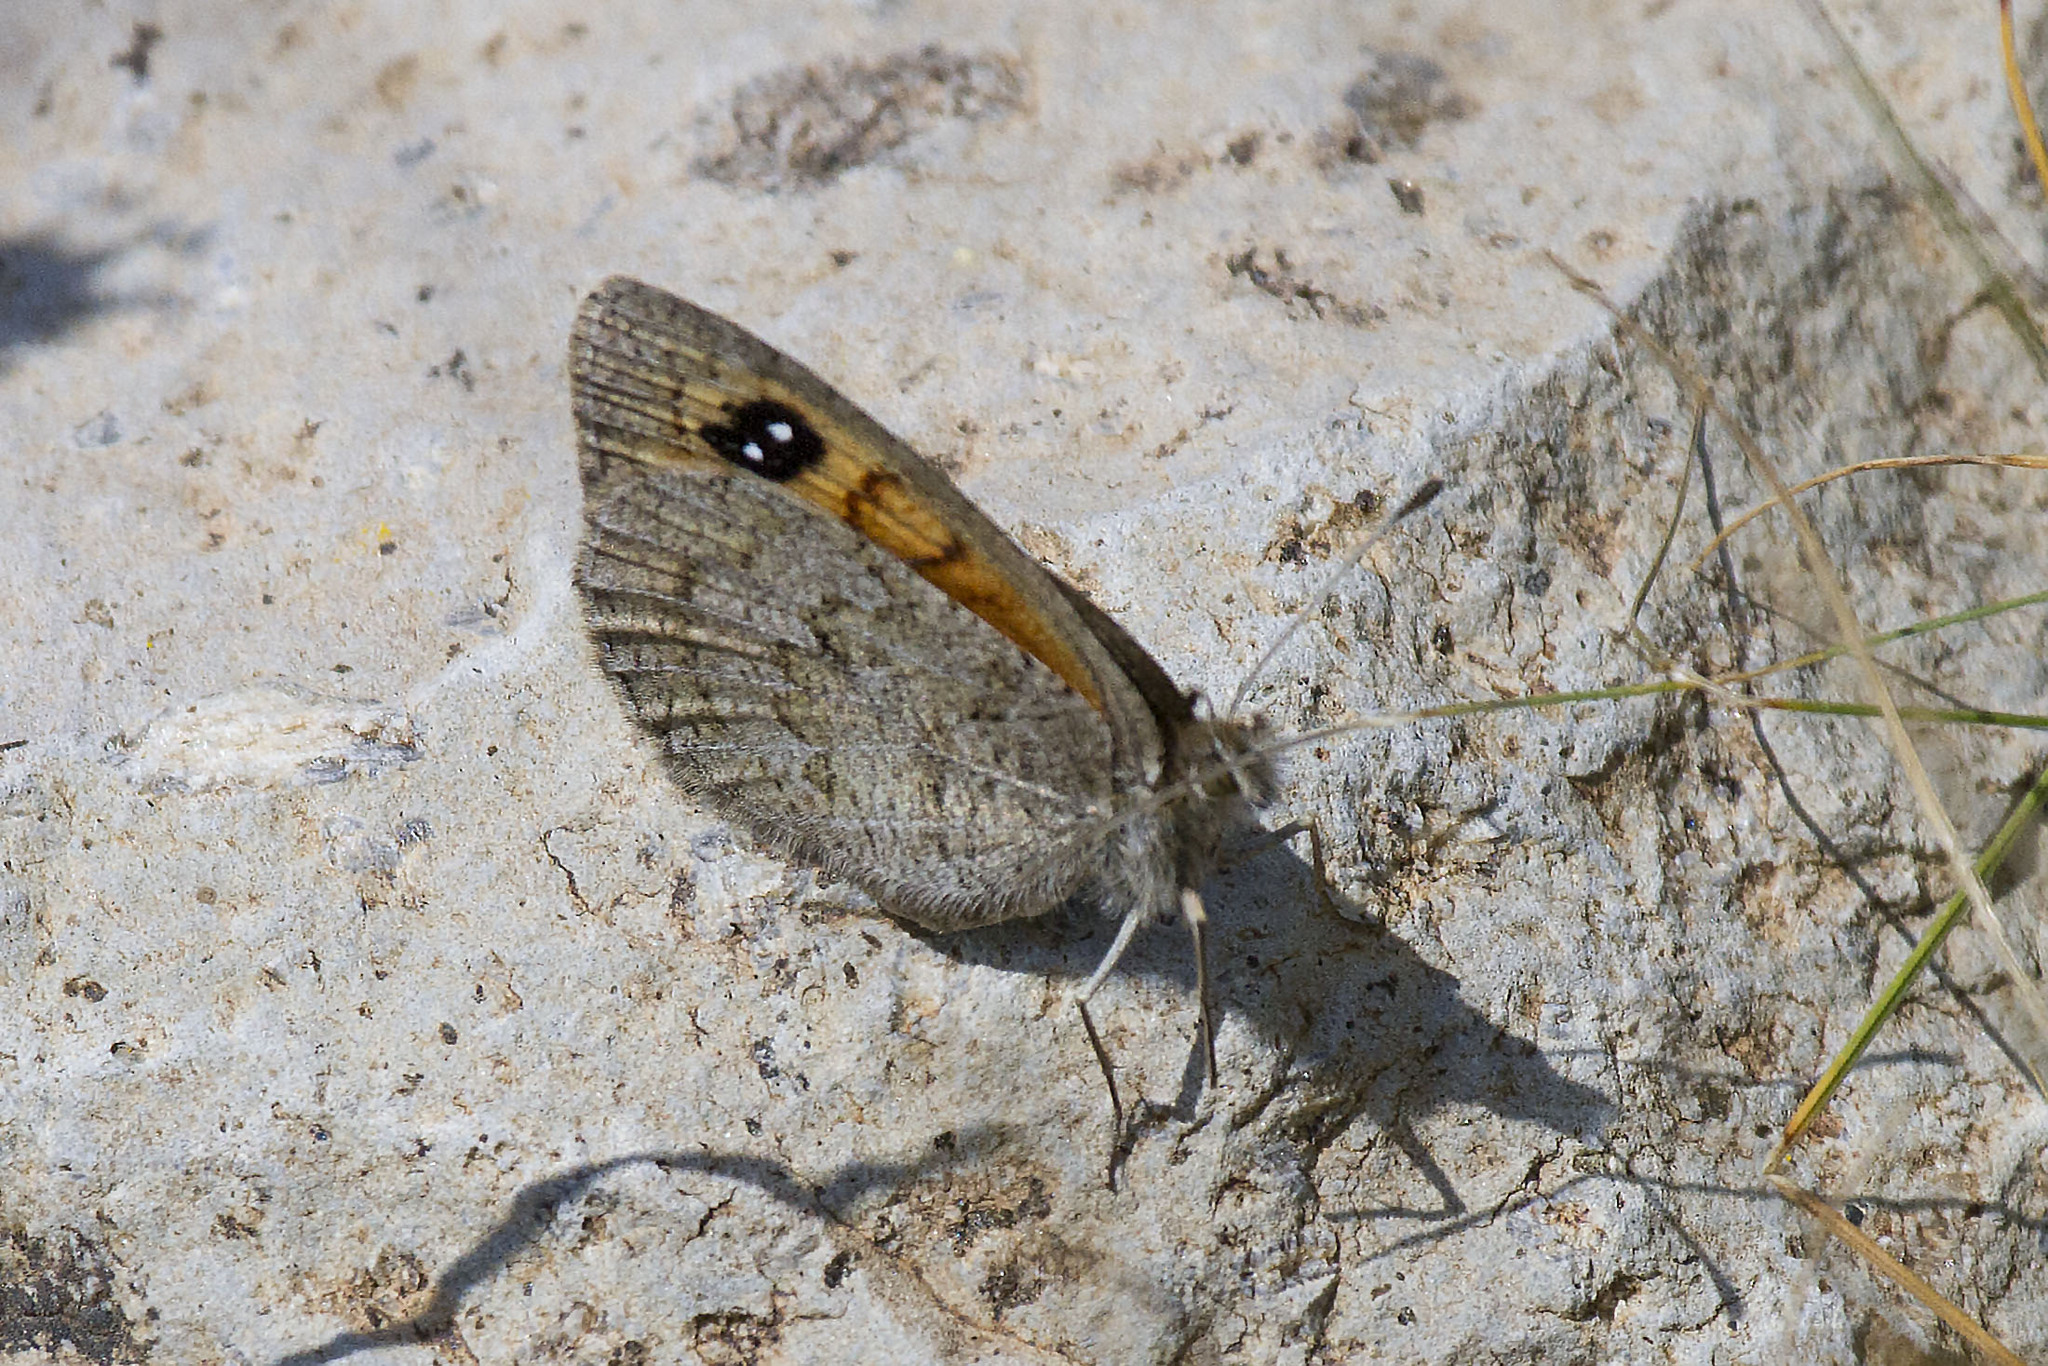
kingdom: Animalia
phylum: Arthropoda
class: Insecta
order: Lepidoptera
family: Nymphalidae
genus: Erebia
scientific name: Erebia iranica
